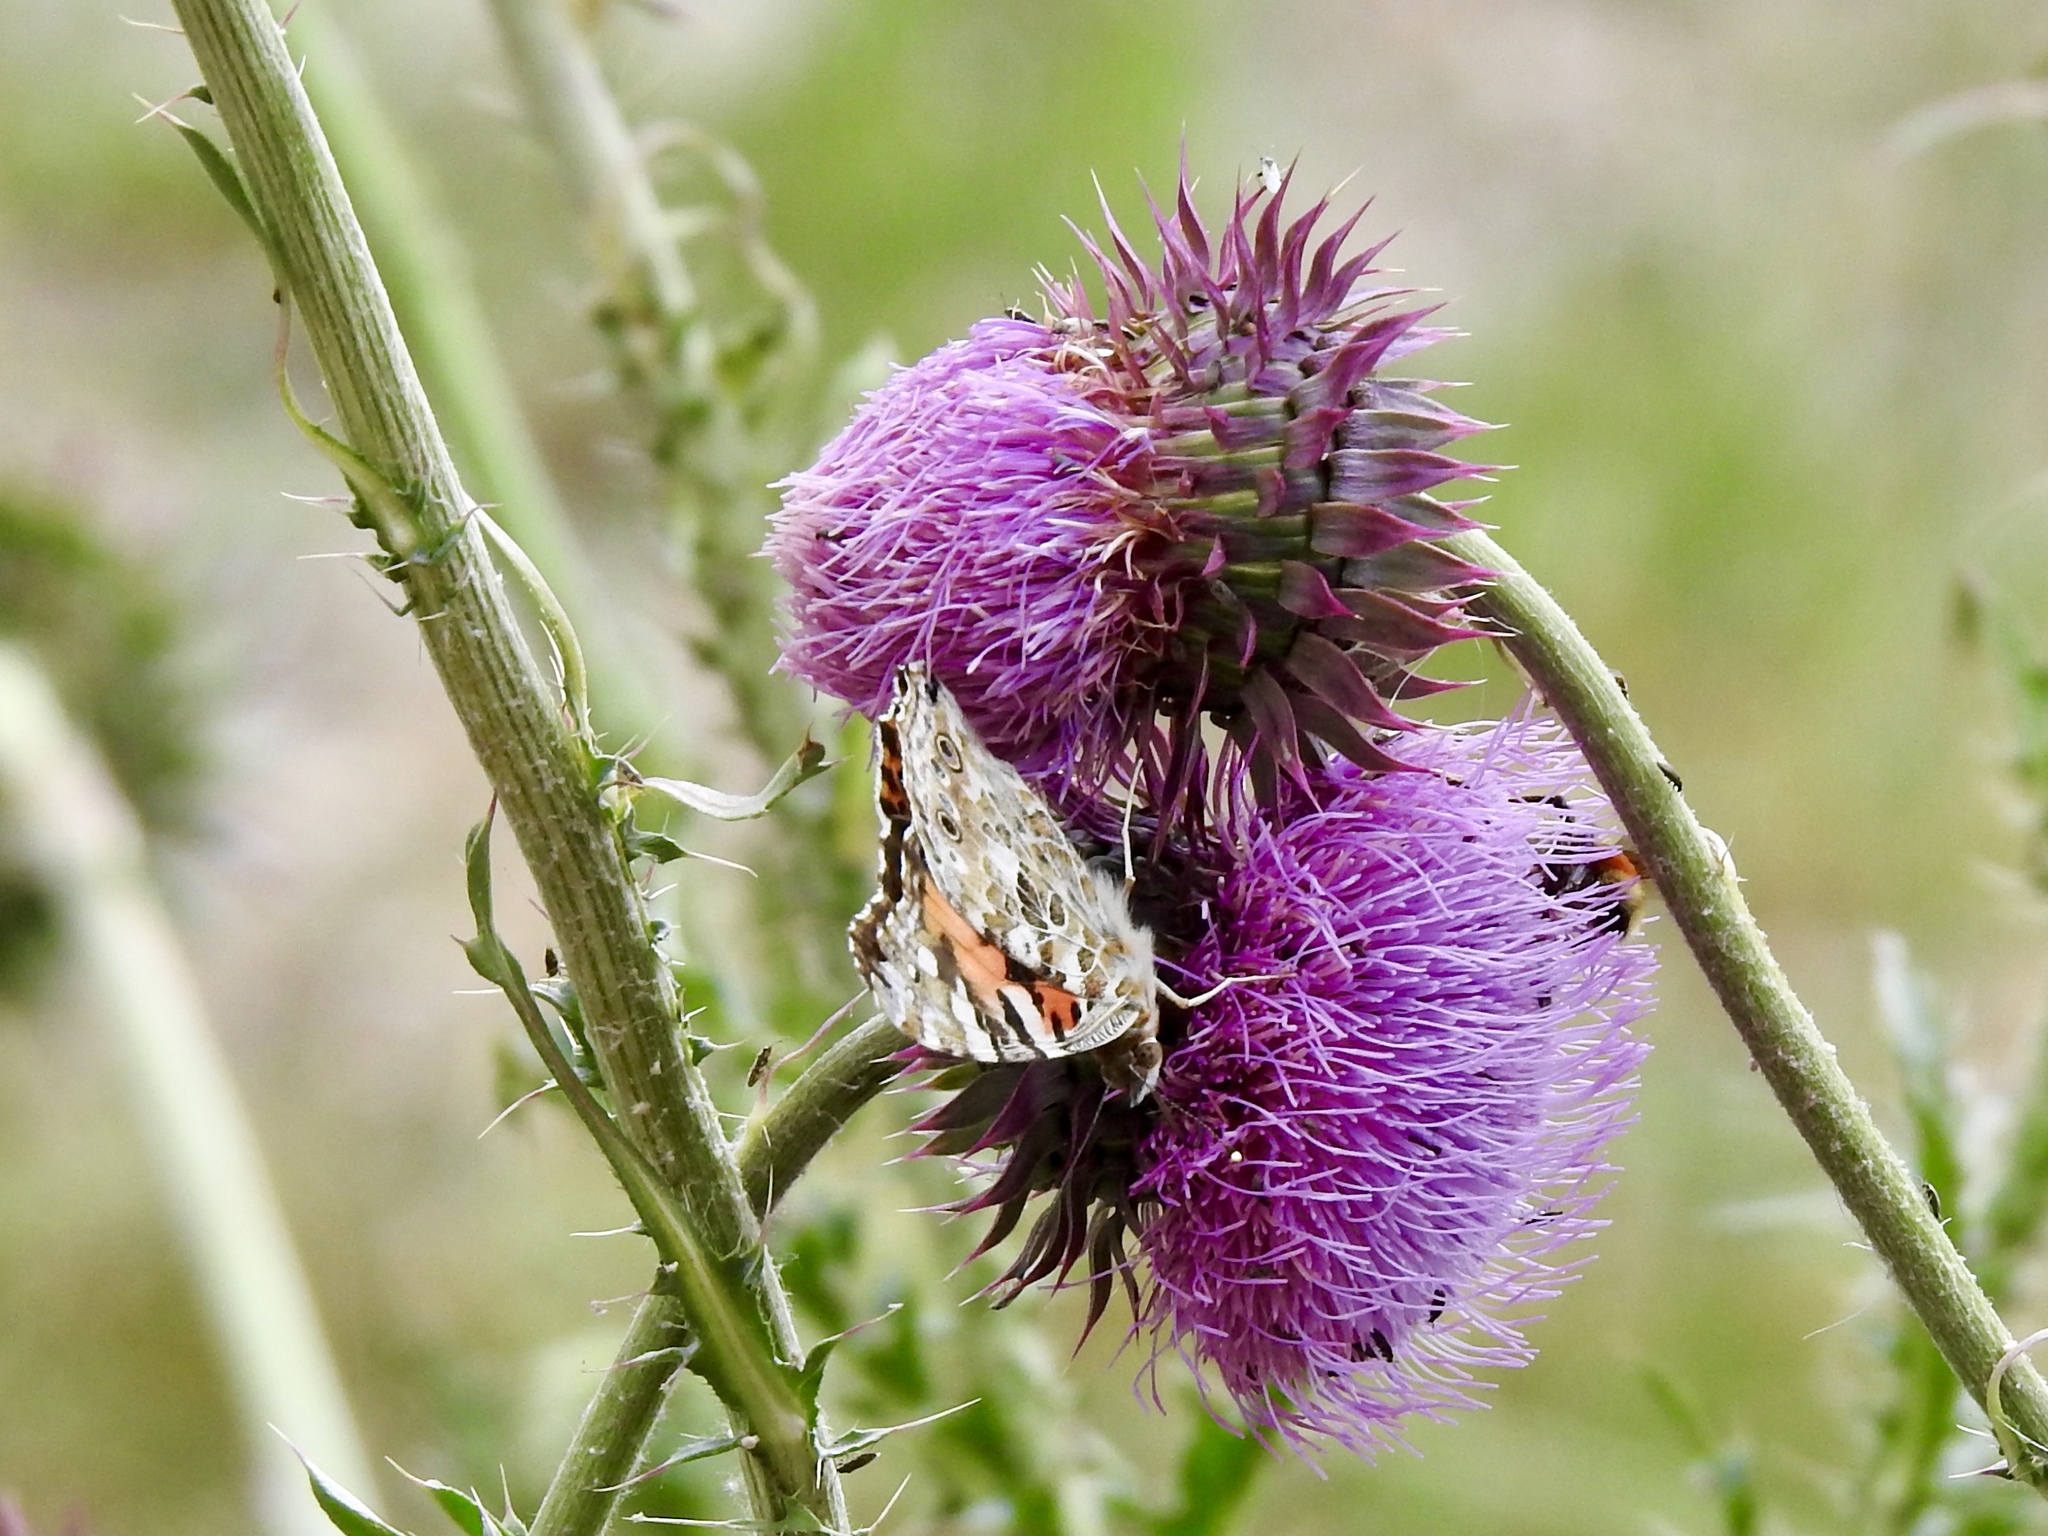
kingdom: Animalia
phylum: Arthropoda
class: Insecta
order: Lepidoptera
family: Nymphalidae
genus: Vanessa
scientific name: Vanessa cardui
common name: Painted lady
